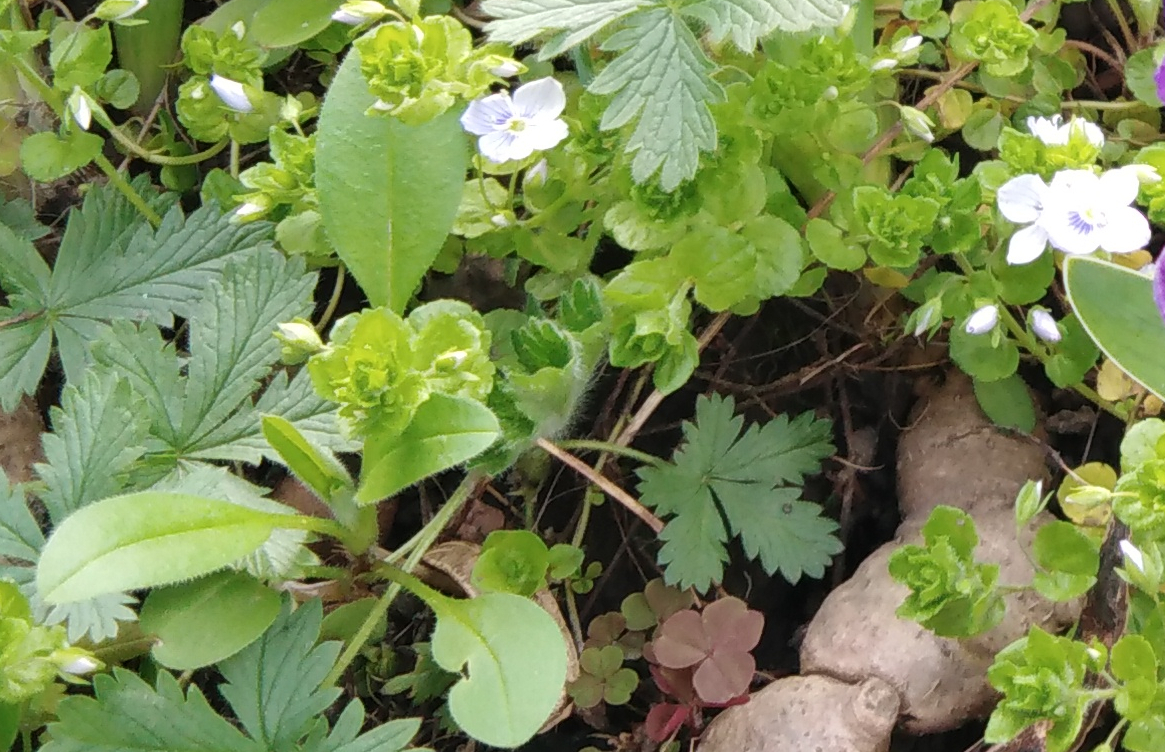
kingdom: Plantae
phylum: Tracheophyta
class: Magnoliopsida
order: Lamiales
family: Plantaginaceae
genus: Veronica
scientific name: Veronica filiformis
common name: Slender speedwell
